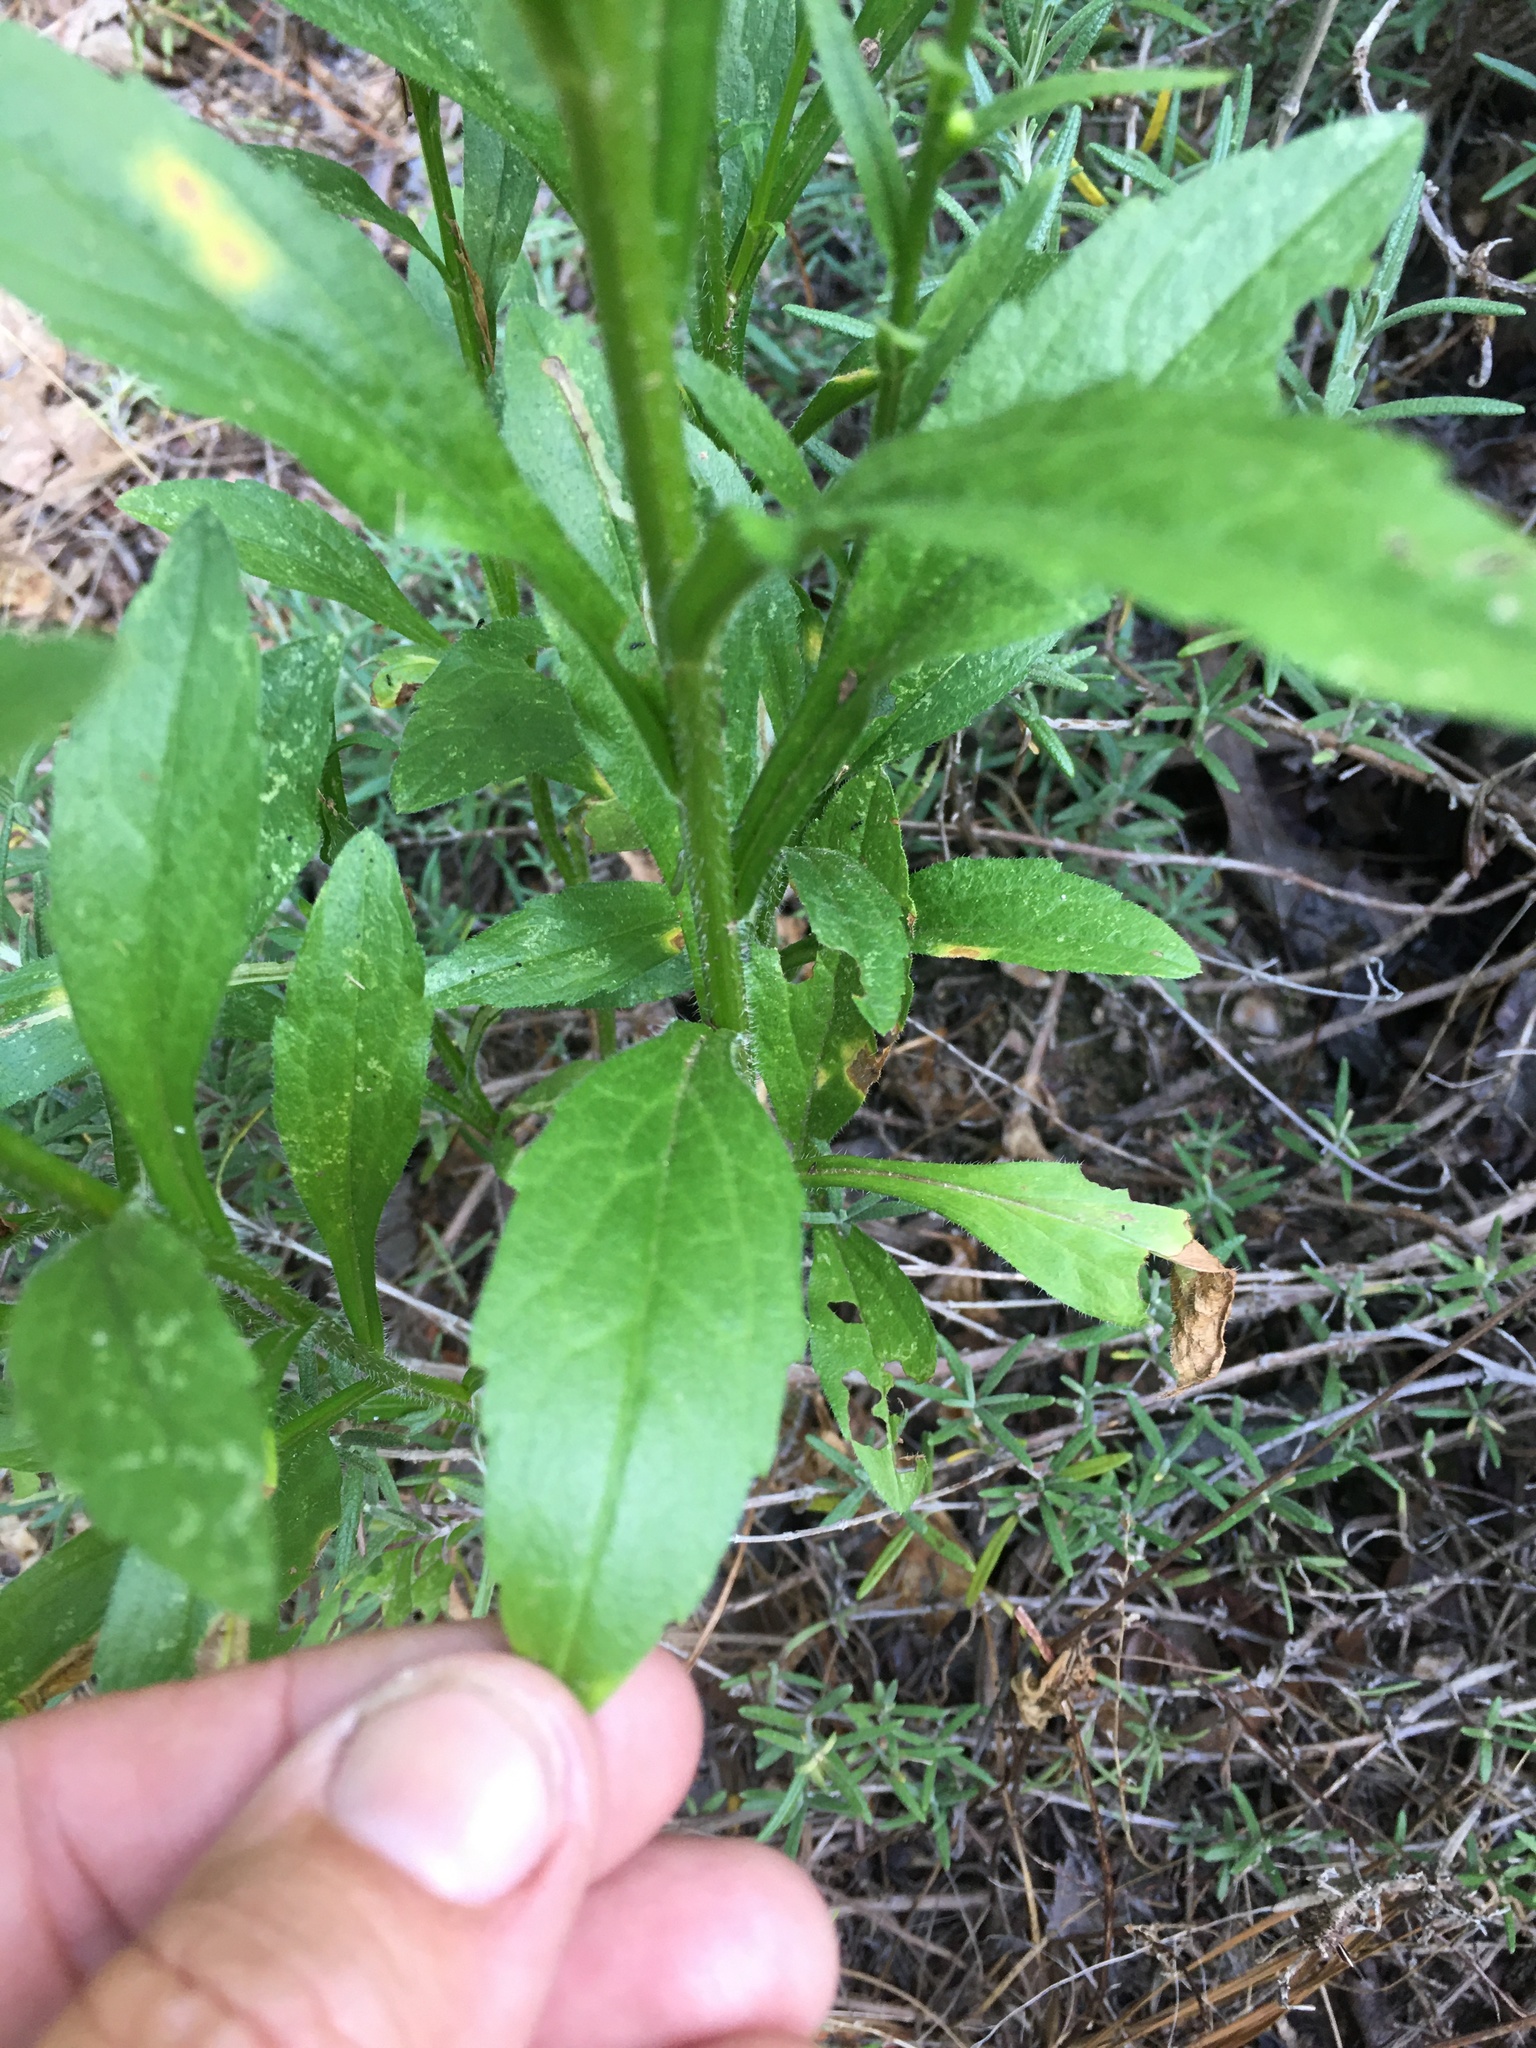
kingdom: Plantae
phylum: Tracheophyta
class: Magnoliopsida
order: Asterales
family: Asteraceae
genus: Erigeron
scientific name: Erigeron annuus
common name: Tall fleabane
